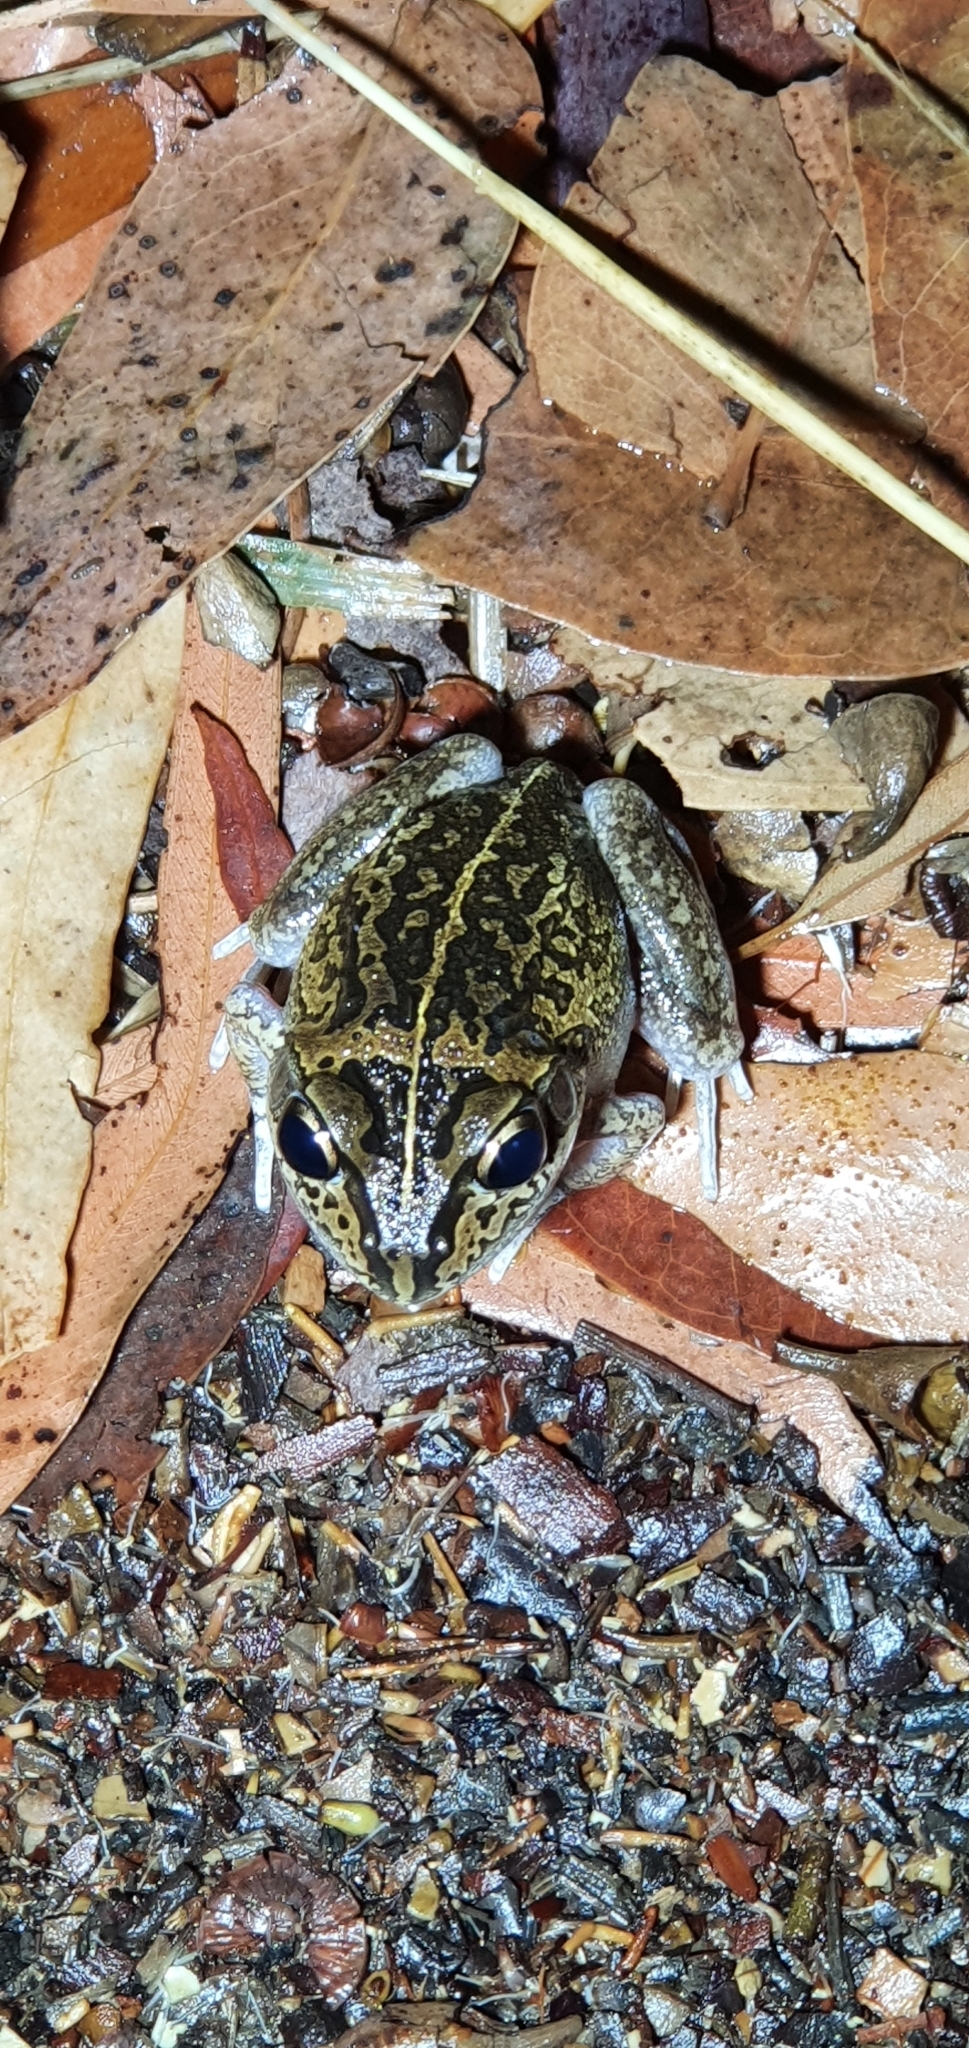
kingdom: Animalia
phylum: Chordata
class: Amphibia
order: Anura
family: Pelodryadidae
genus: Ranoidea
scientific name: Ranoidea brevipes
